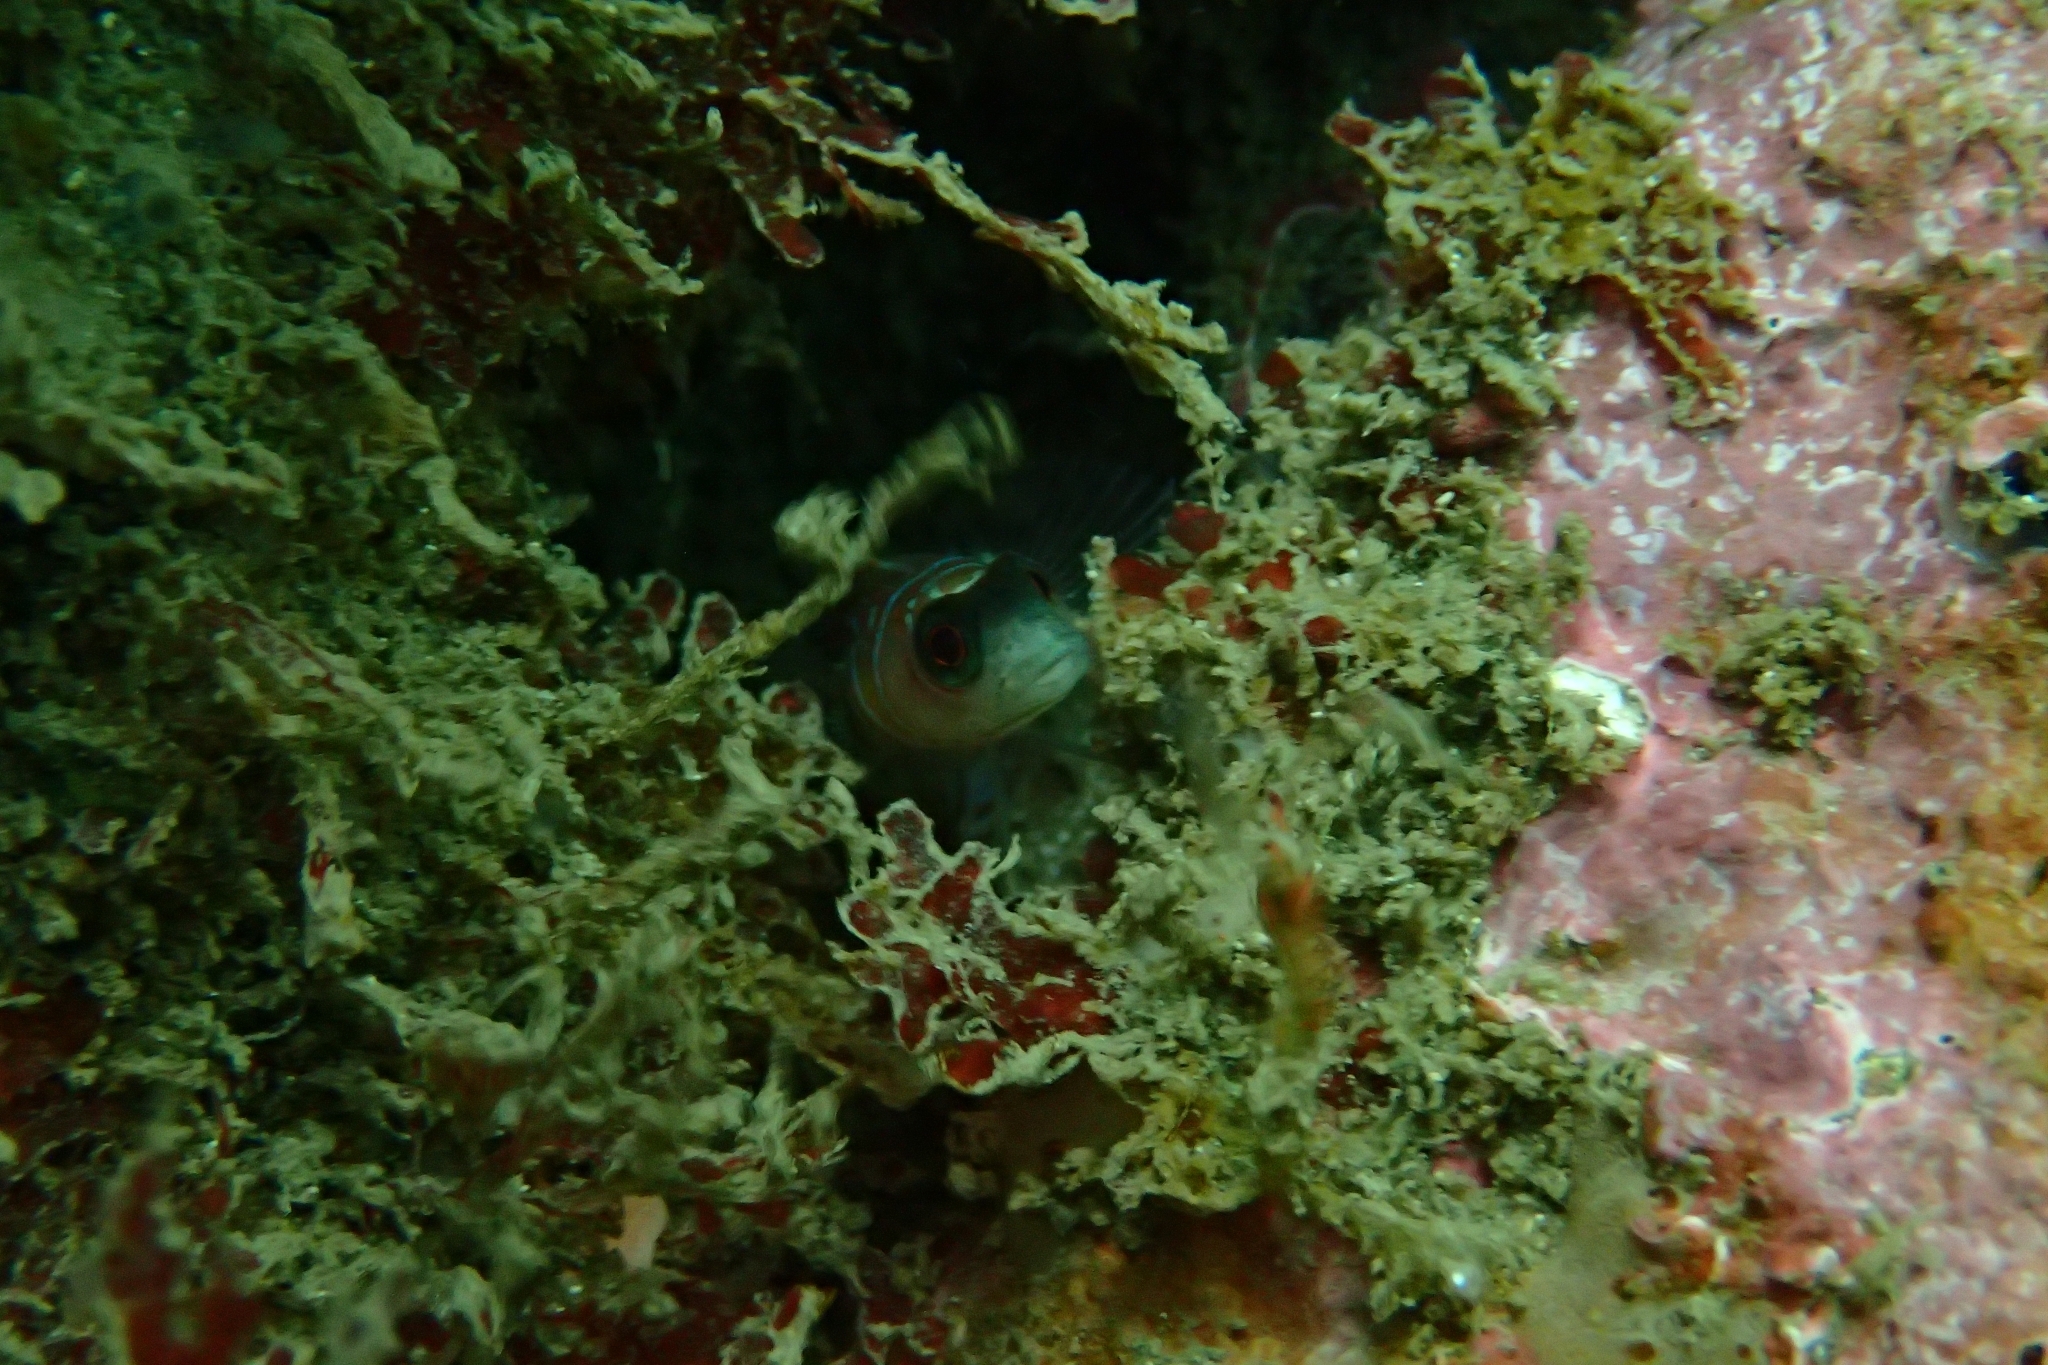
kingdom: Animalia
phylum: Chordata
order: Perciformes
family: Tripterygiidae
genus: Ruanoho
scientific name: Ruanoho whero
